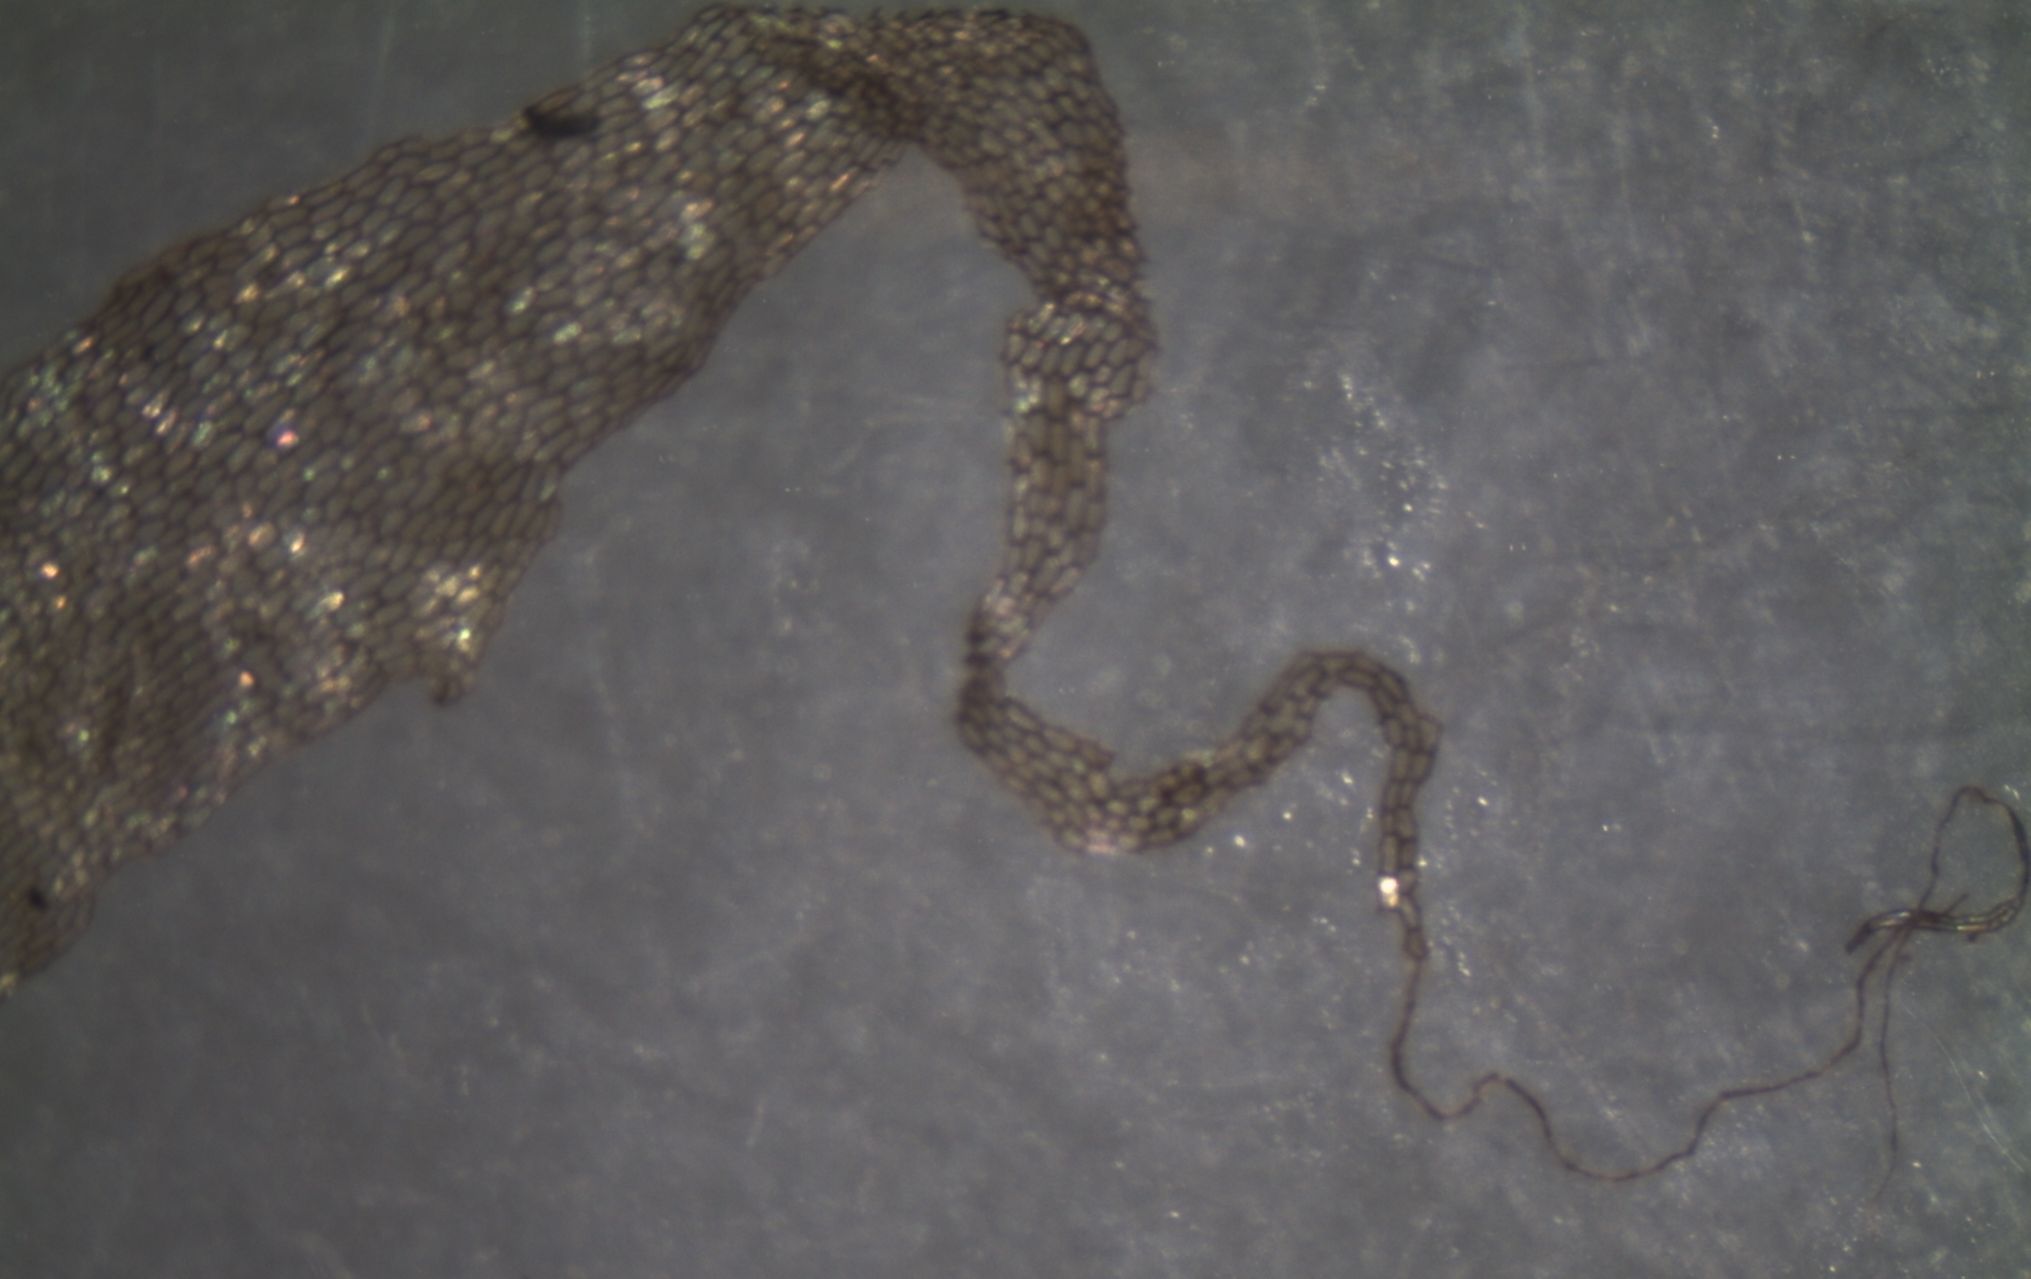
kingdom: Plantae
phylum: Tracheophyta
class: Polypodiopsida
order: Polypodiales
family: Aspleniaceae
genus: Asplenium
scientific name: Asplenium oblongifolium
